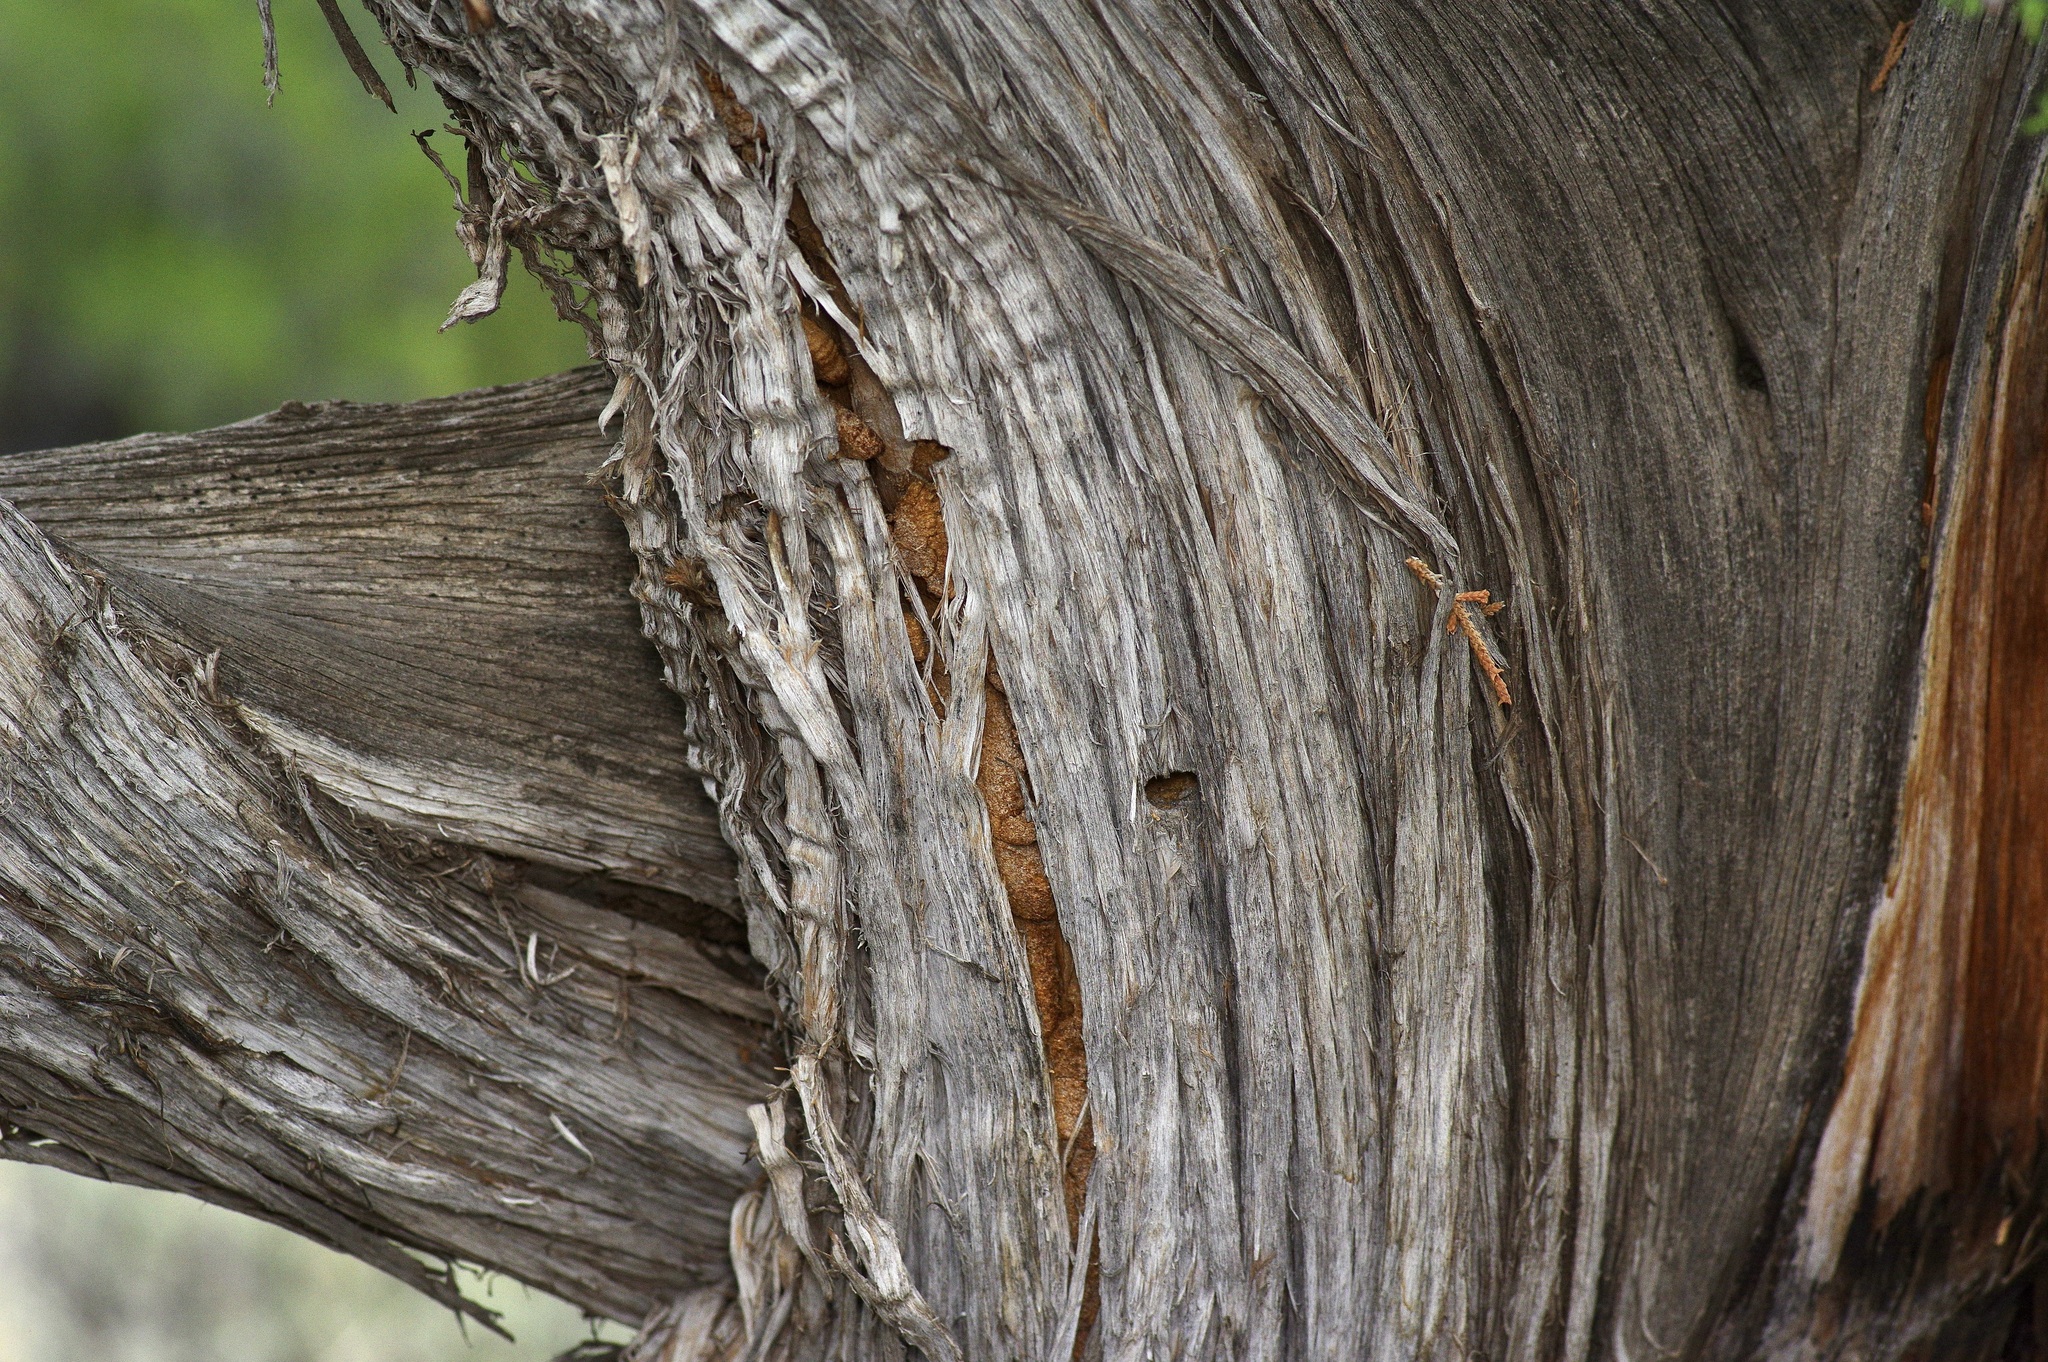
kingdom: Plantae
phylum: Tracheophyta
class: Pinopsida
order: Pinales
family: Cupressaceae
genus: Juniperus
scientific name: Juniperus monosperma
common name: One-seed juniper
